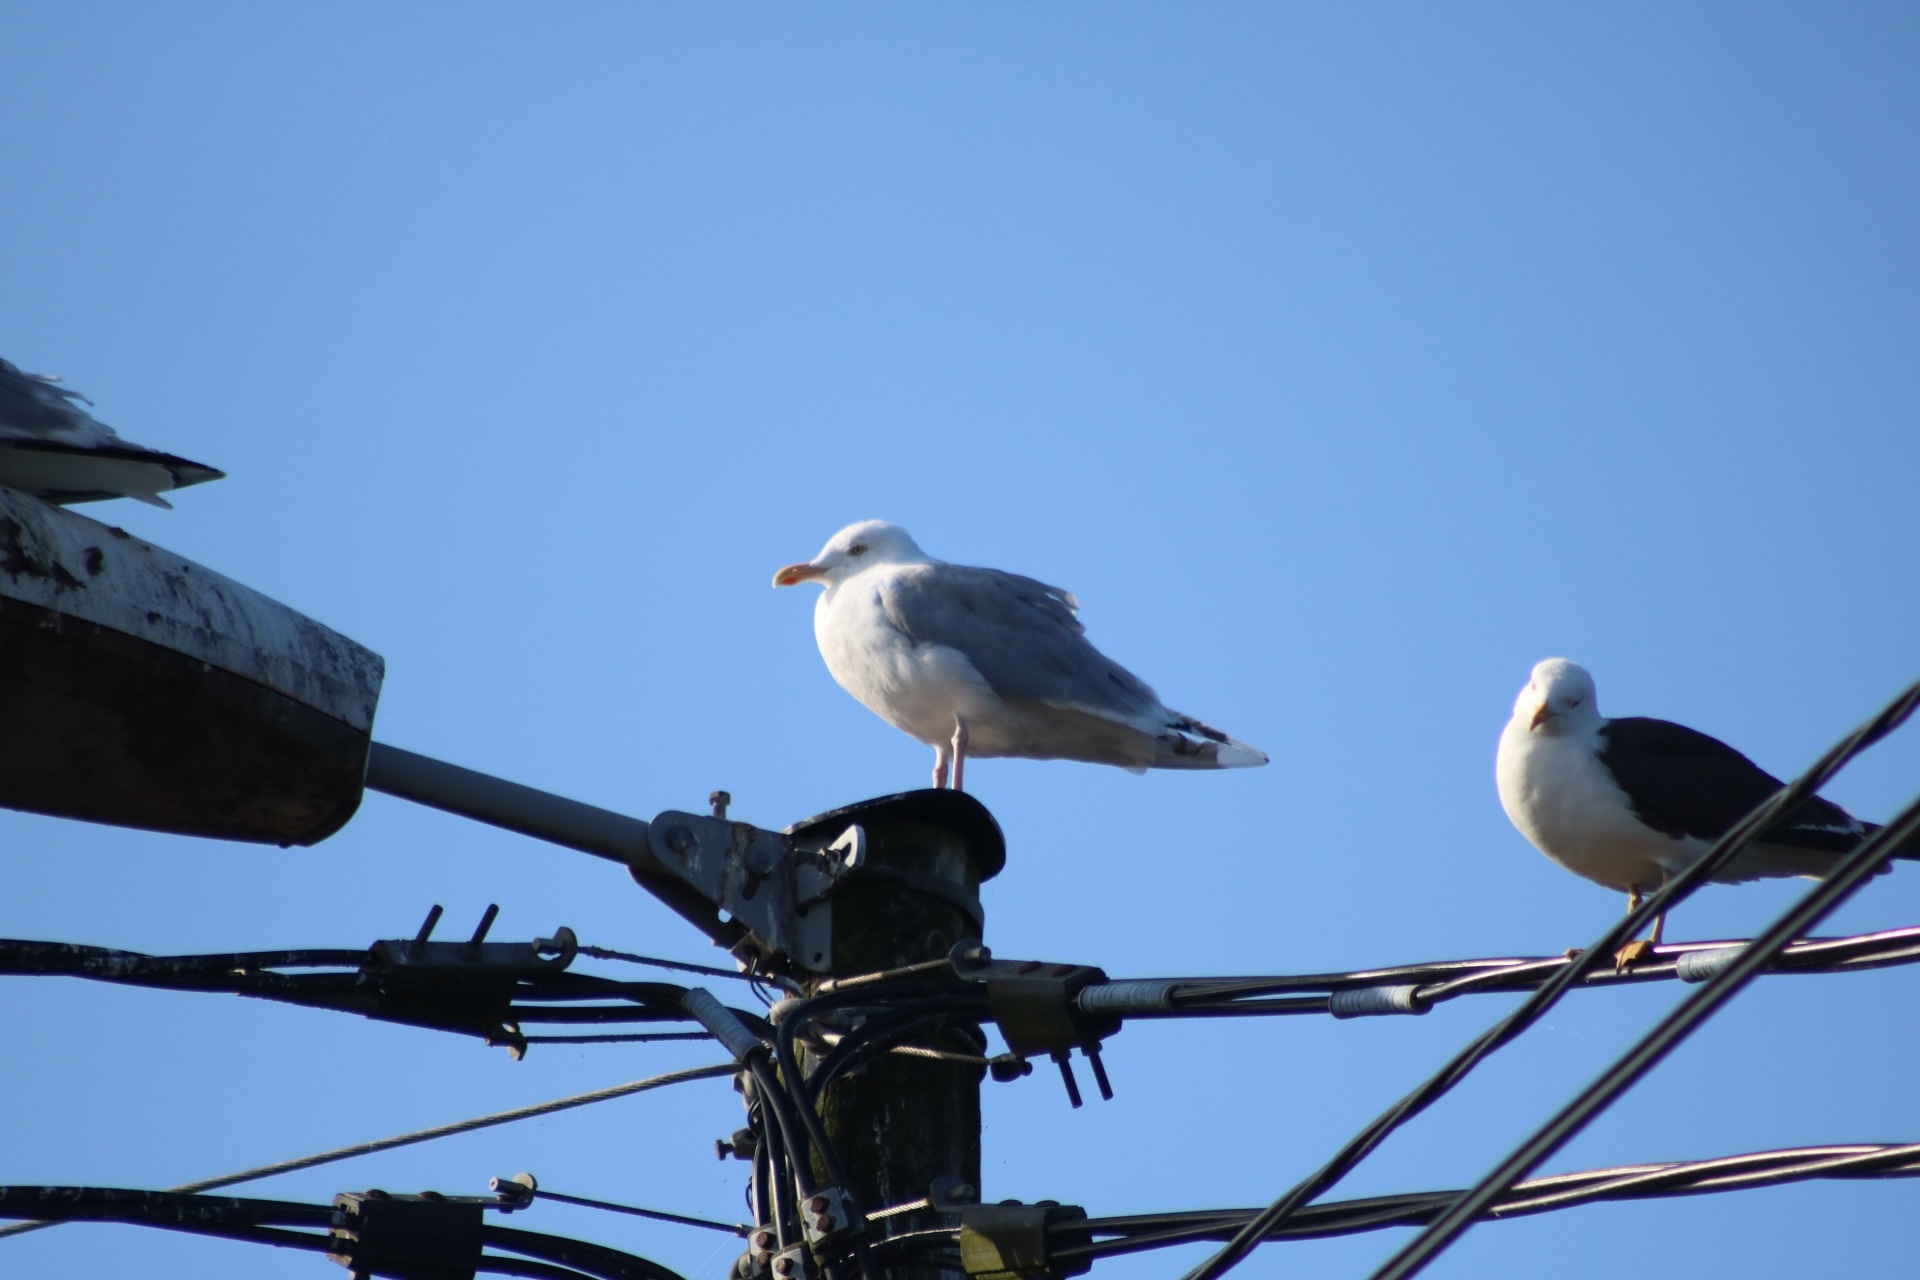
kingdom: Animalia
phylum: Chordata
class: Aves
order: Charadriiformes
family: Laridae
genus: Larus
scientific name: Larus argentatus
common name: Herring gull
